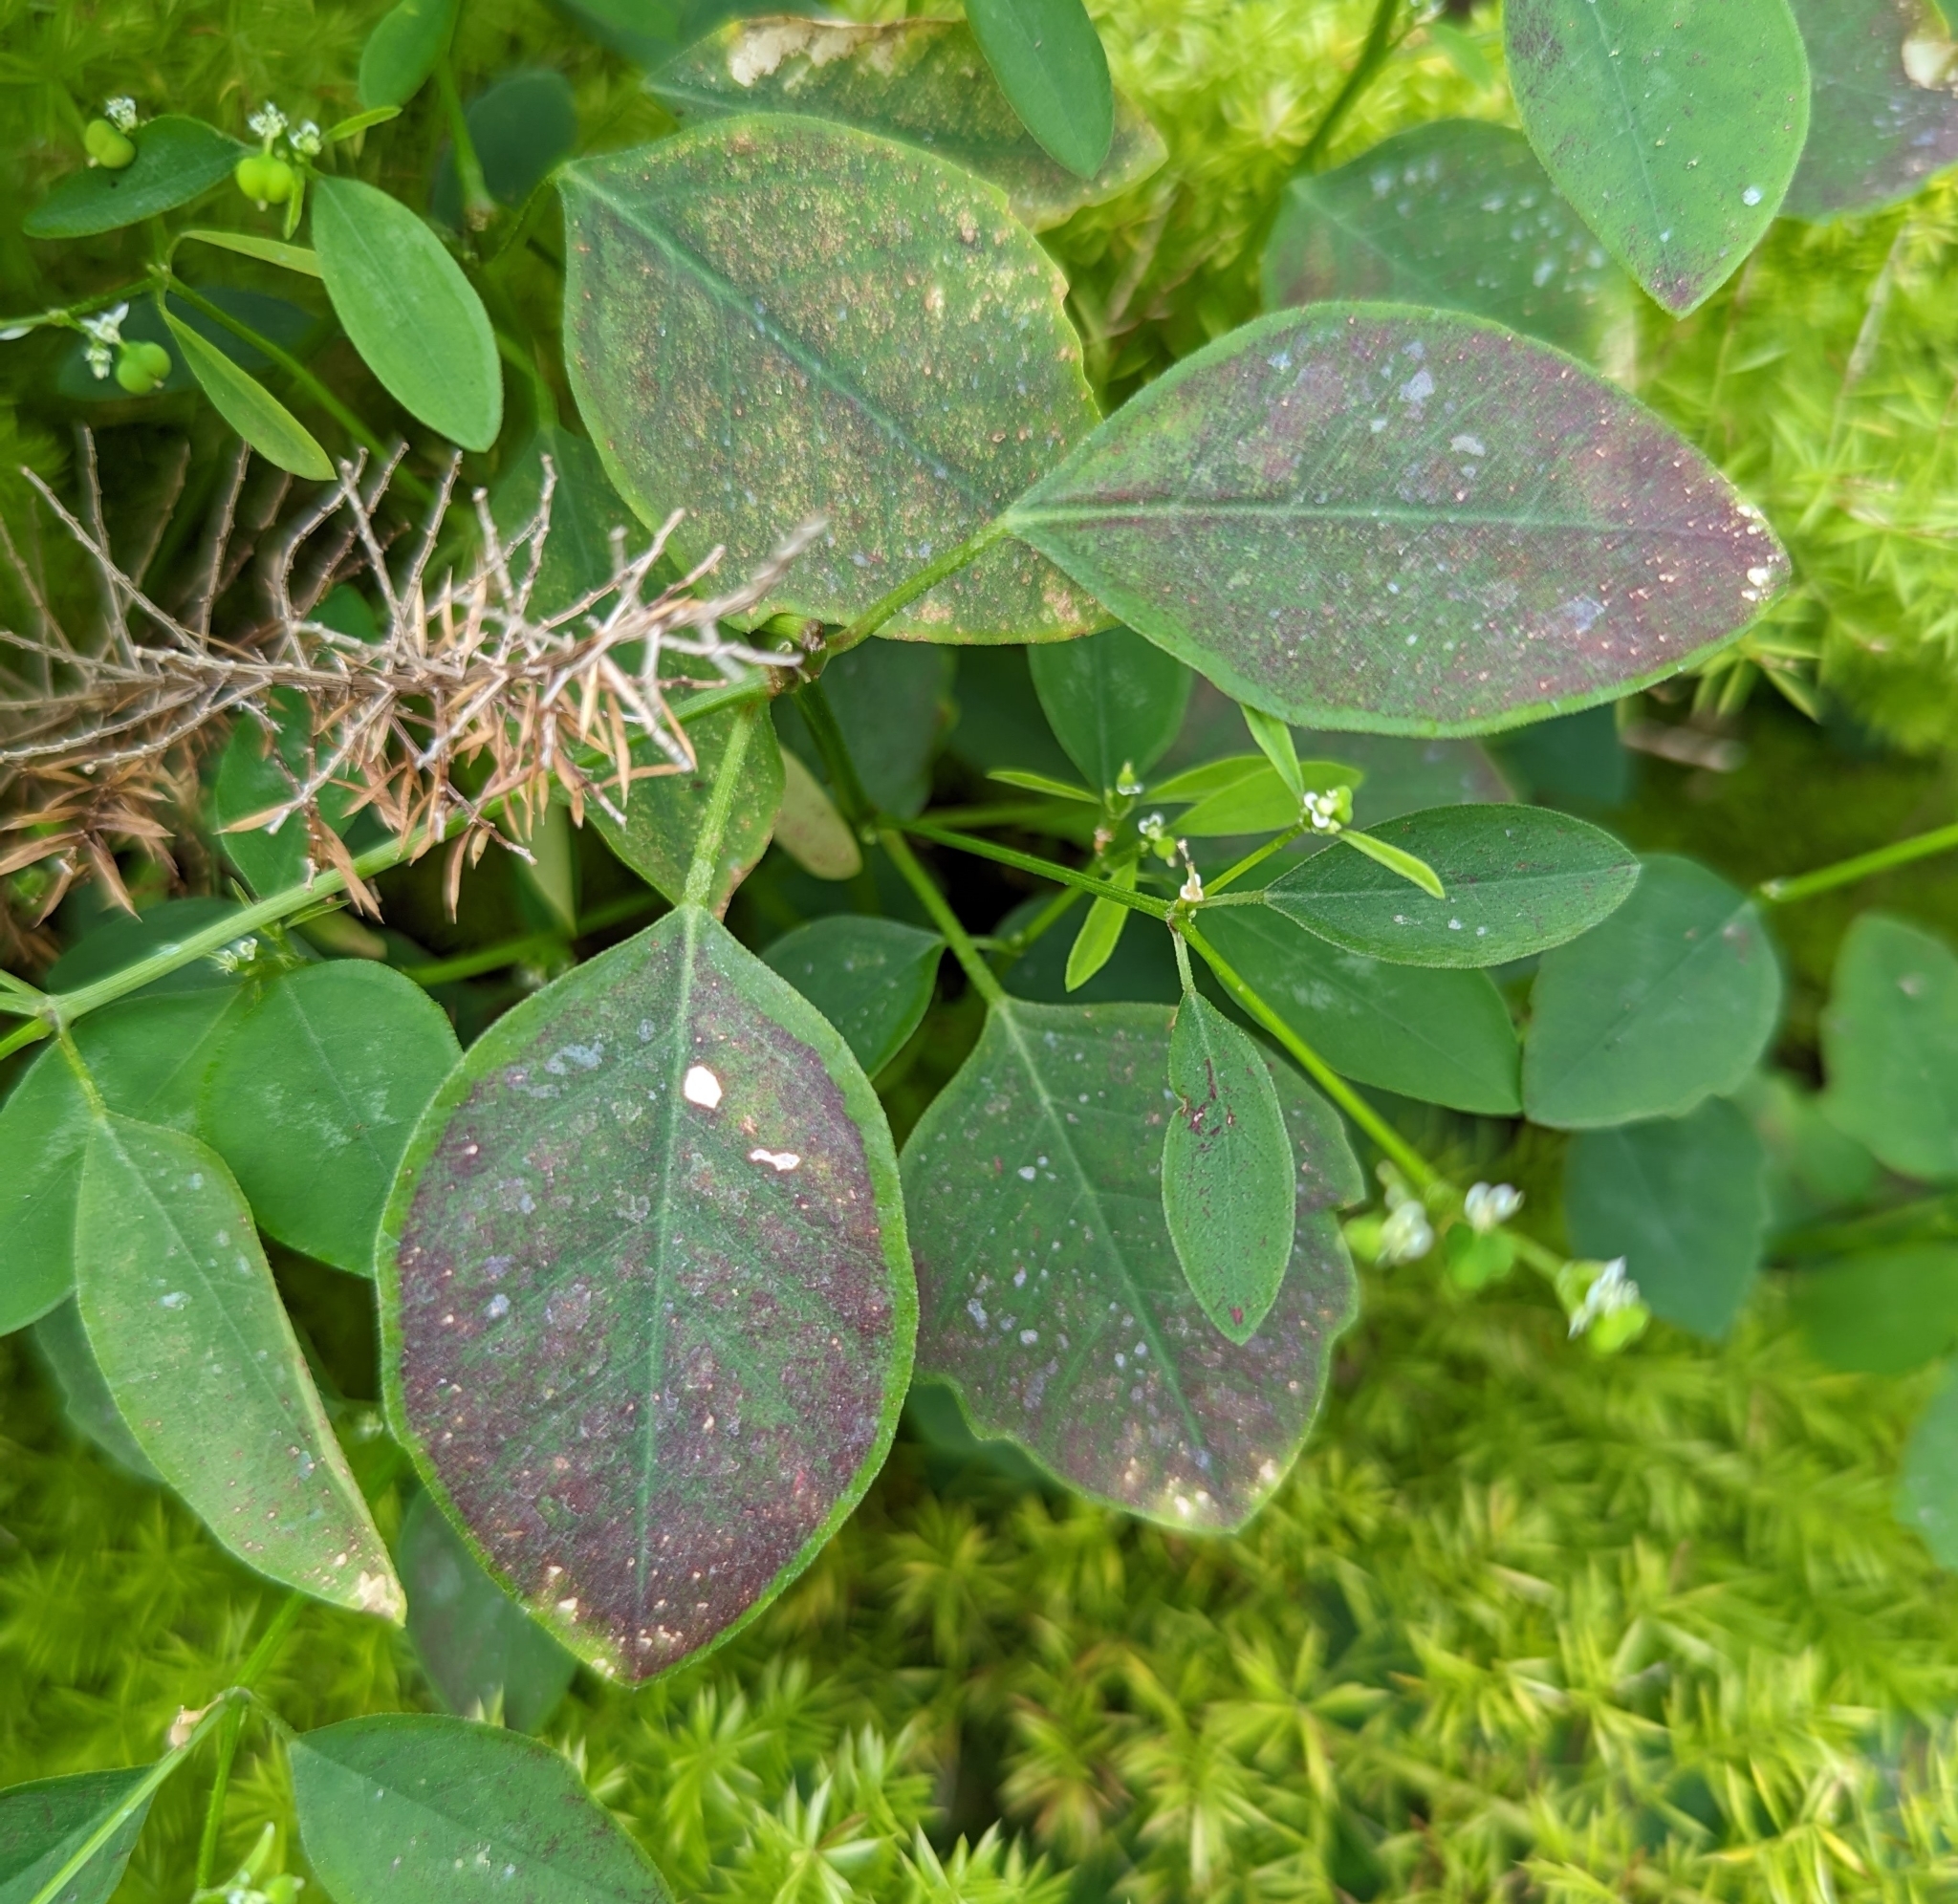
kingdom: Plantae
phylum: Tracheophyta
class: Magnoliopsida
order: Malpighiales
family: Euphorbiaceae
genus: Euphorbia
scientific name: Euphorbia graminea
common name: Grassleaf spurge
